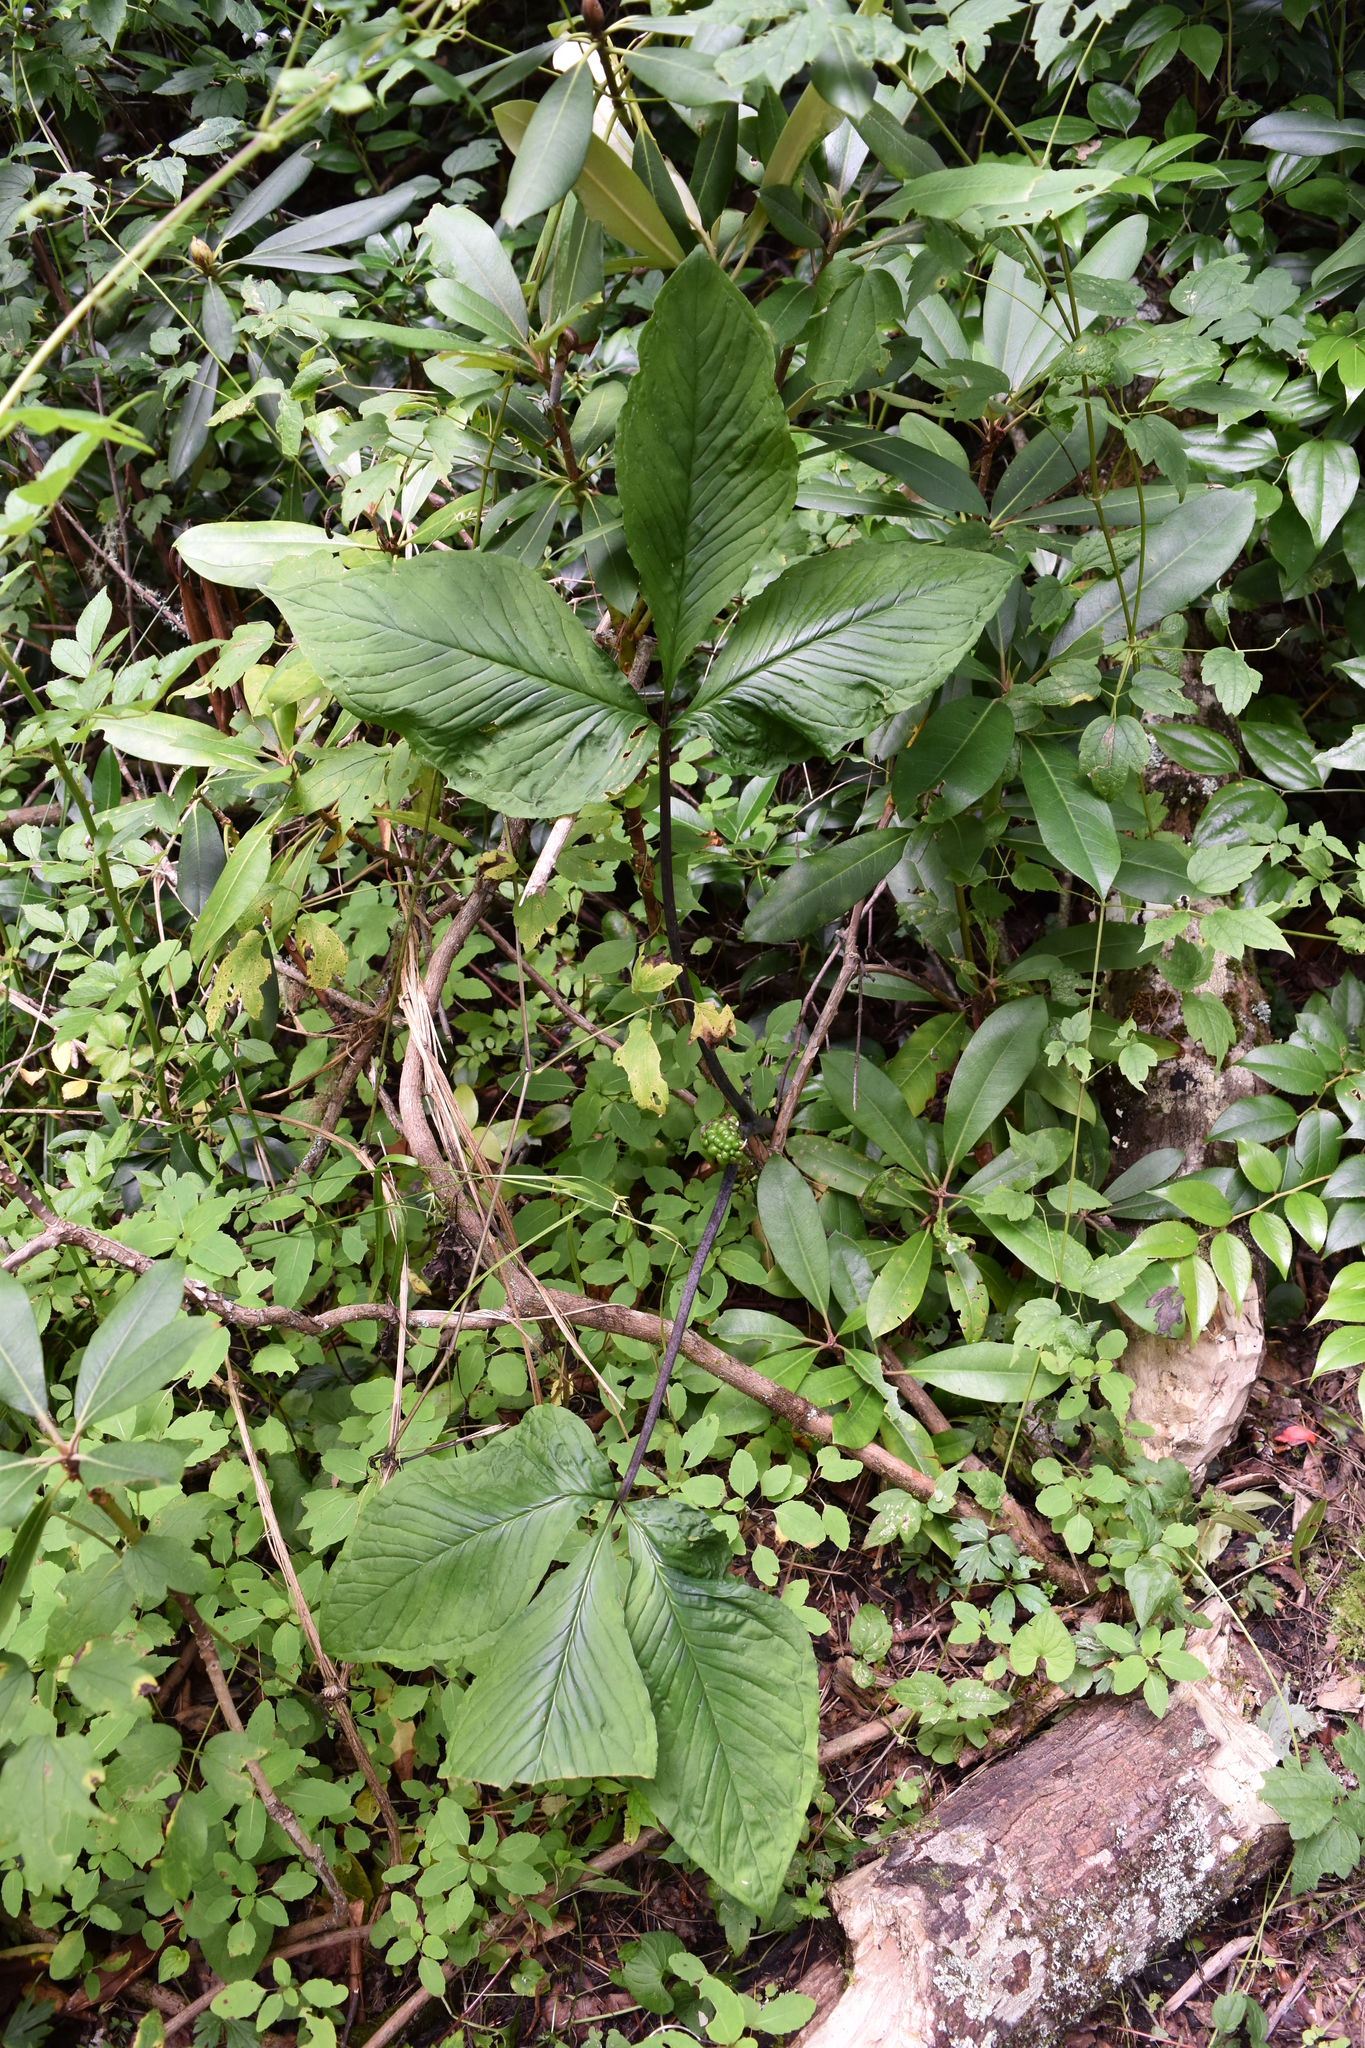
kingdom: Plantae
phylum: Tracheophyta
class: Liliopsida
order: Alismatales
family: Araceae
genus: Arisaema
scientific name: Arisaema triphyllum
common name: Jack-in-the-pulpit
